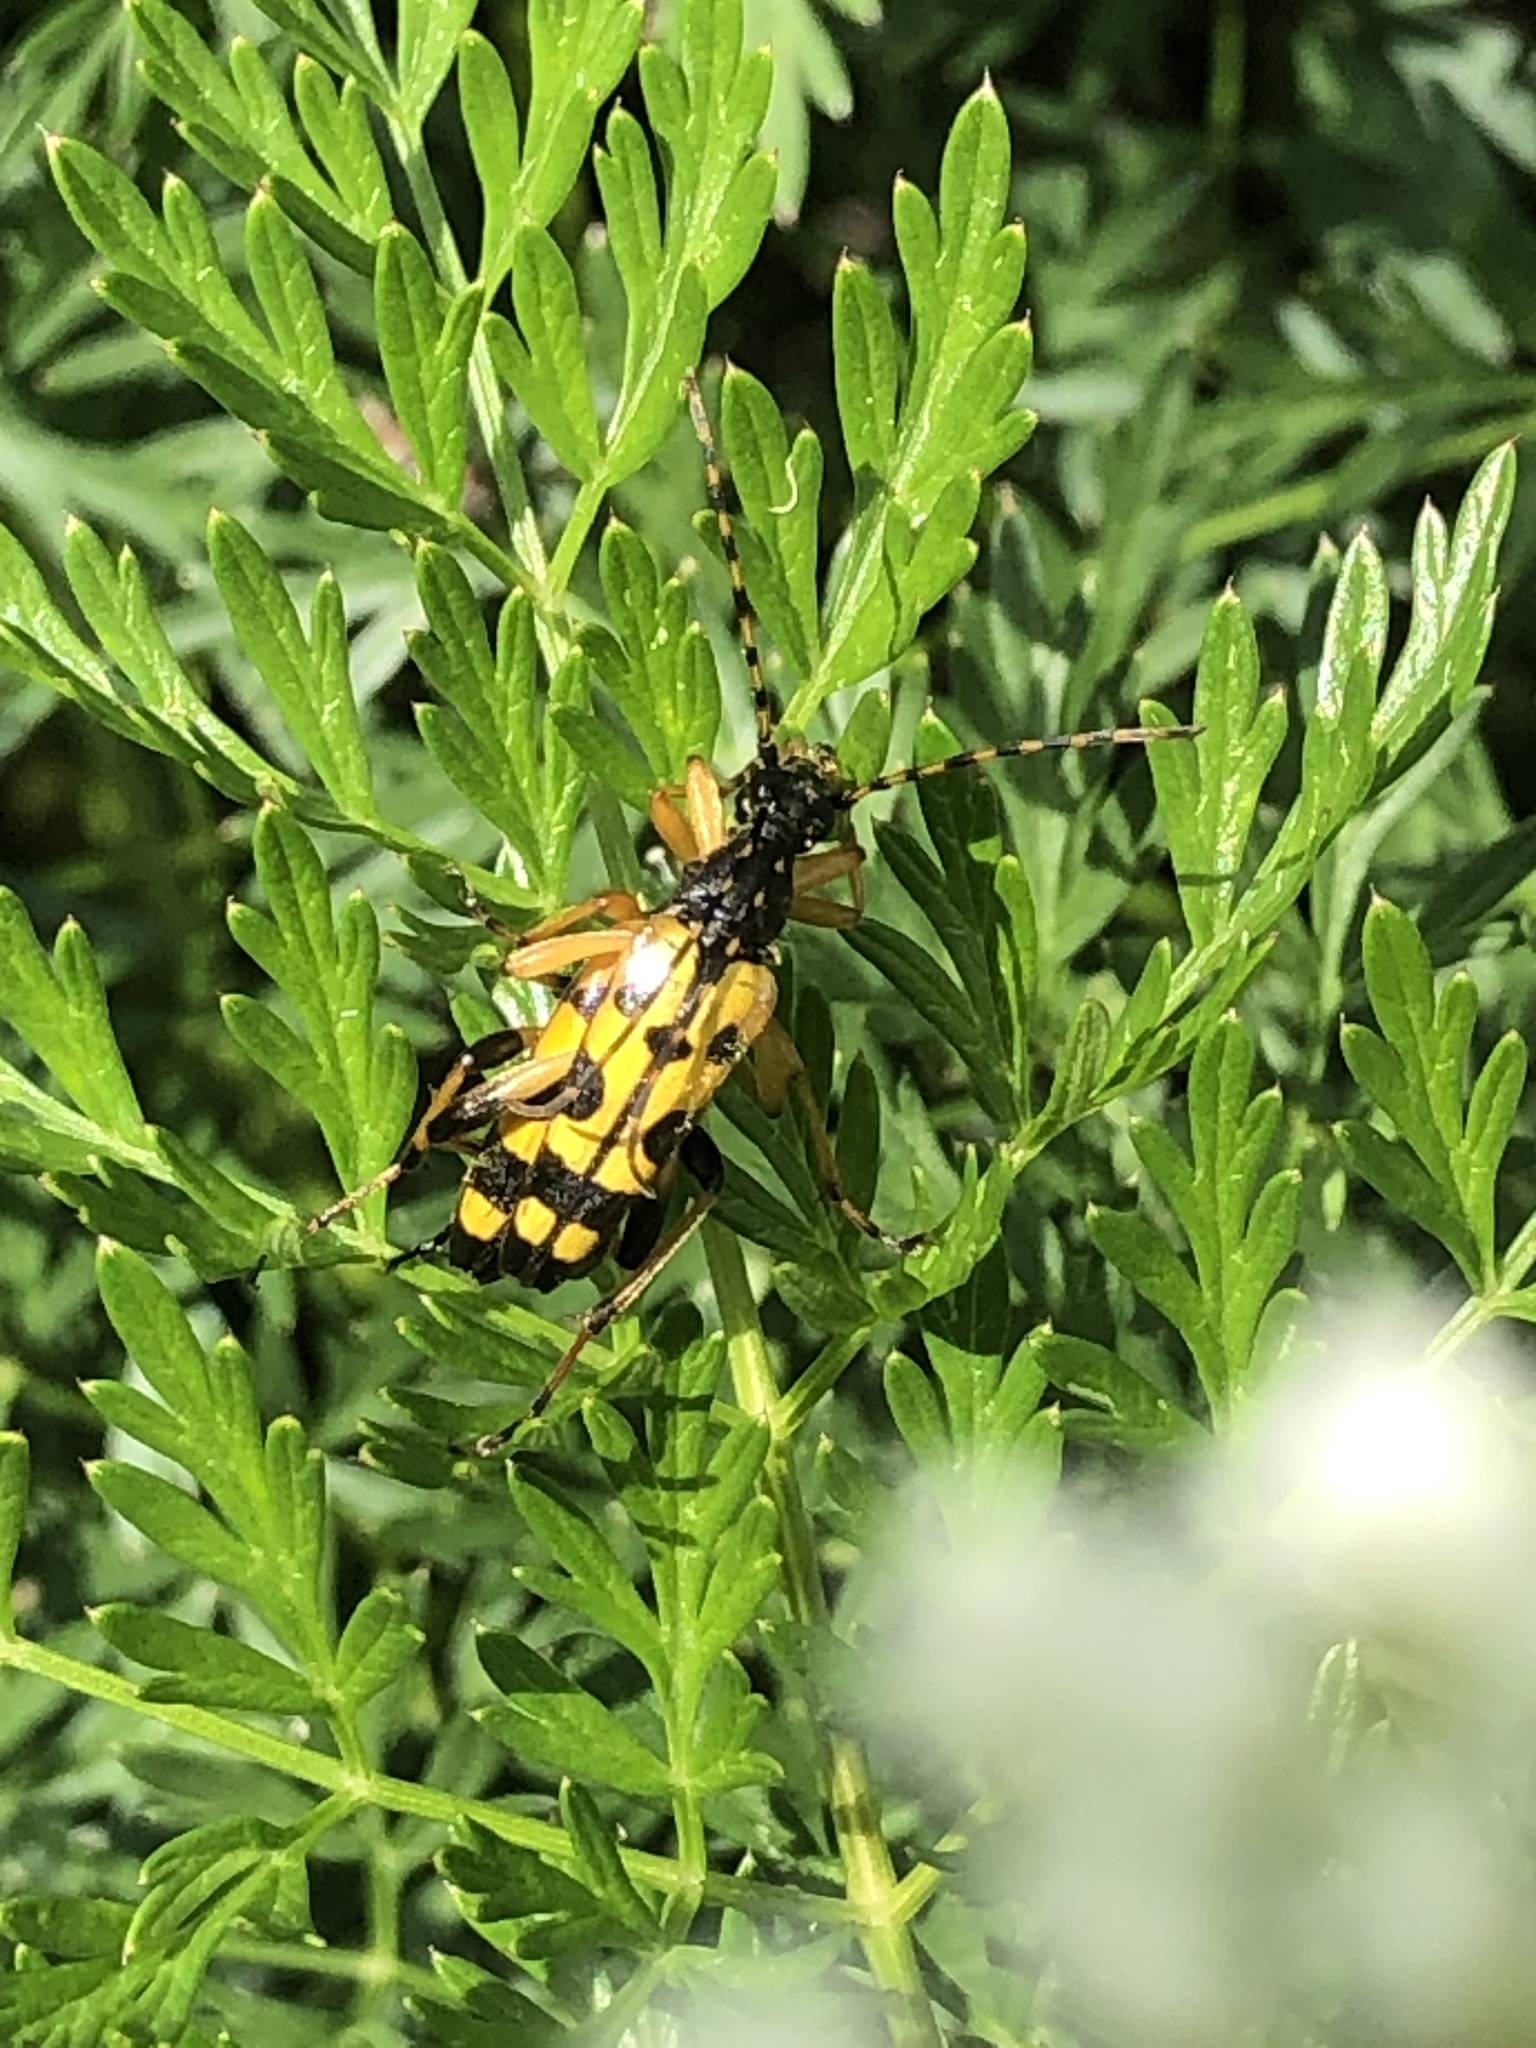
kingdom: Animalia
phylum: Arthropoda
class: Insecta
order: Coleoptera
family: Cerambycidae
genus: Rutpela
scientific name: Rutpela maculata
